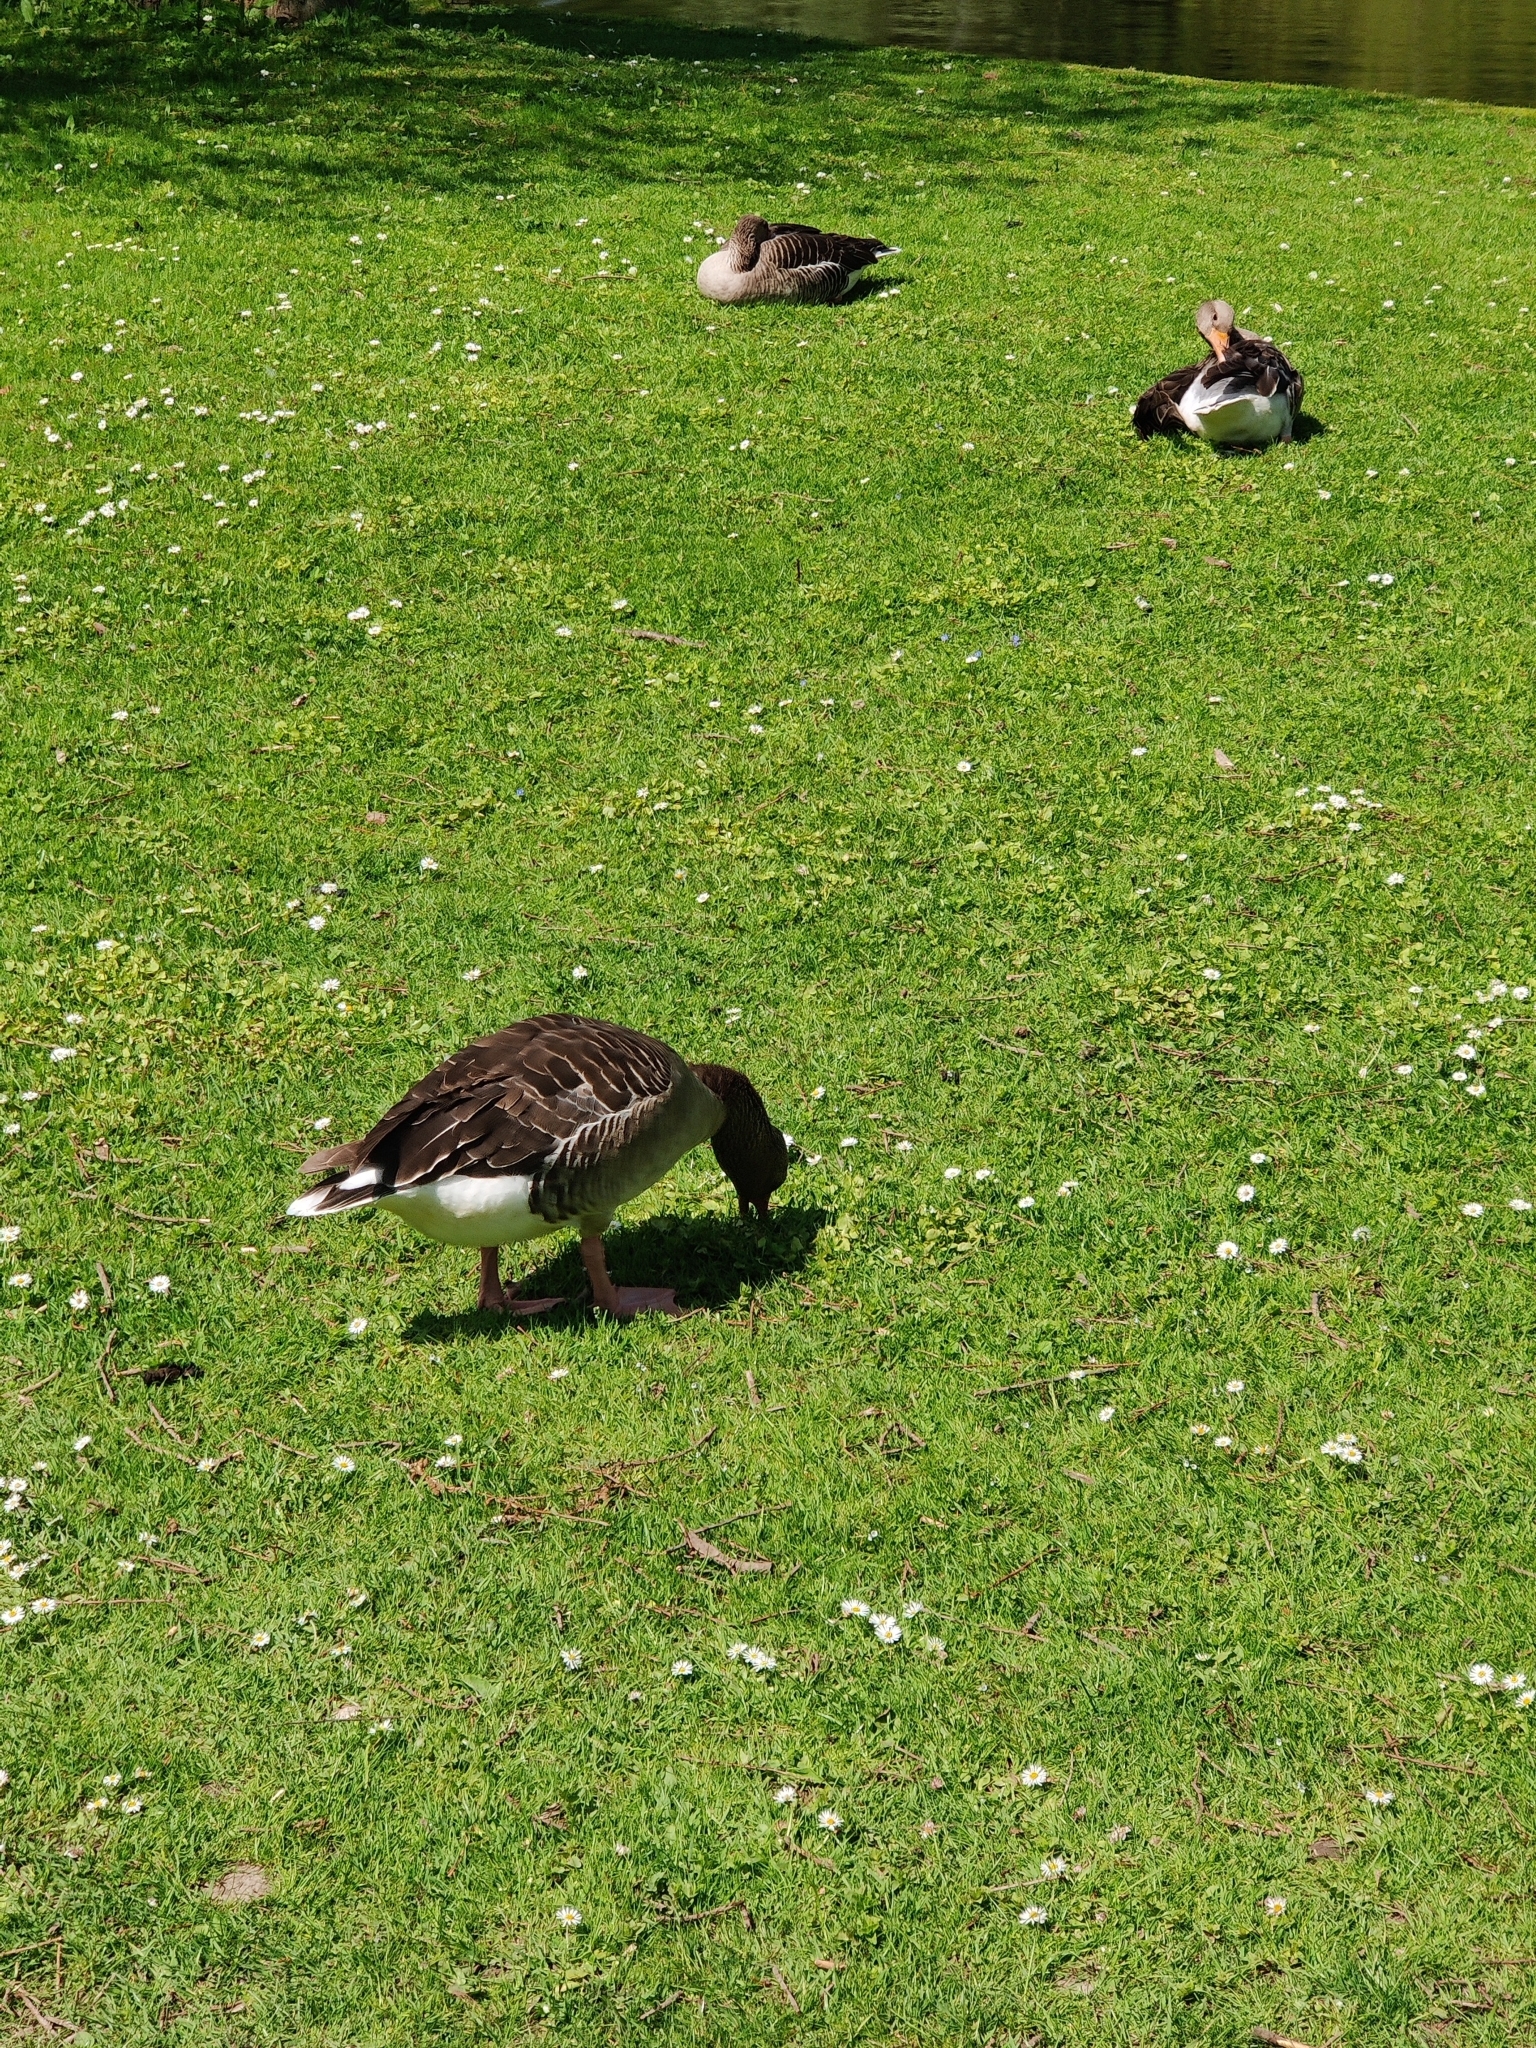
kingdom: Animalia
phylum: Chordata
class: Aves
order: Anseriformes
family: Anatidae
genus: Anser
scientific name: Anser anser
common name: Greylag goose
